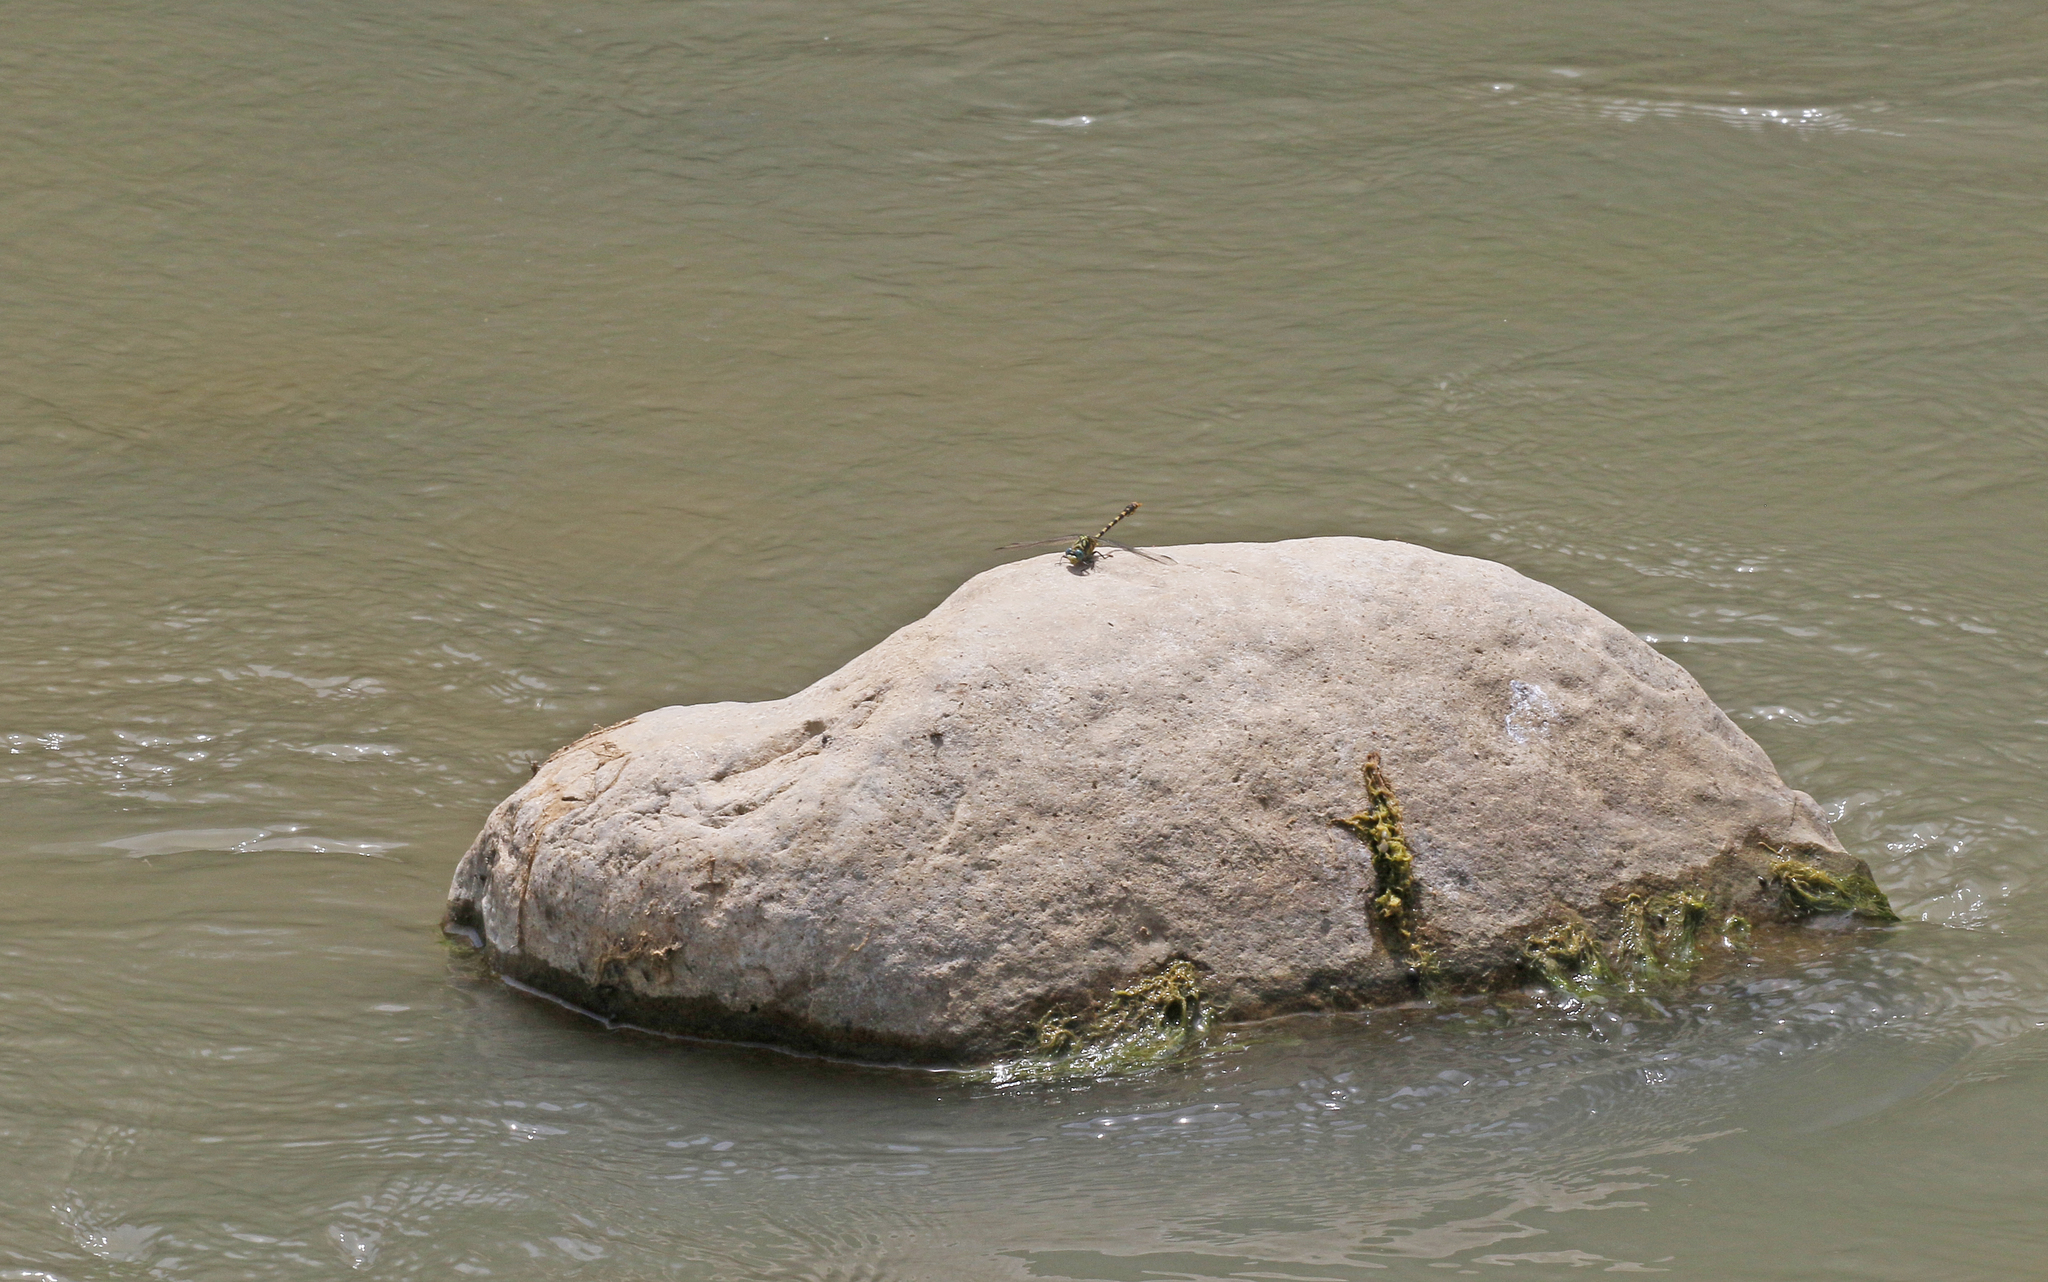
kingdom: Animalia
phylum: Arthropoda
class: Insecta
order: Odonata
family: Gomphidae
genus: Onychogomphus
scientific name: Onychogomphus forcipatus
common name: Small pincertail
